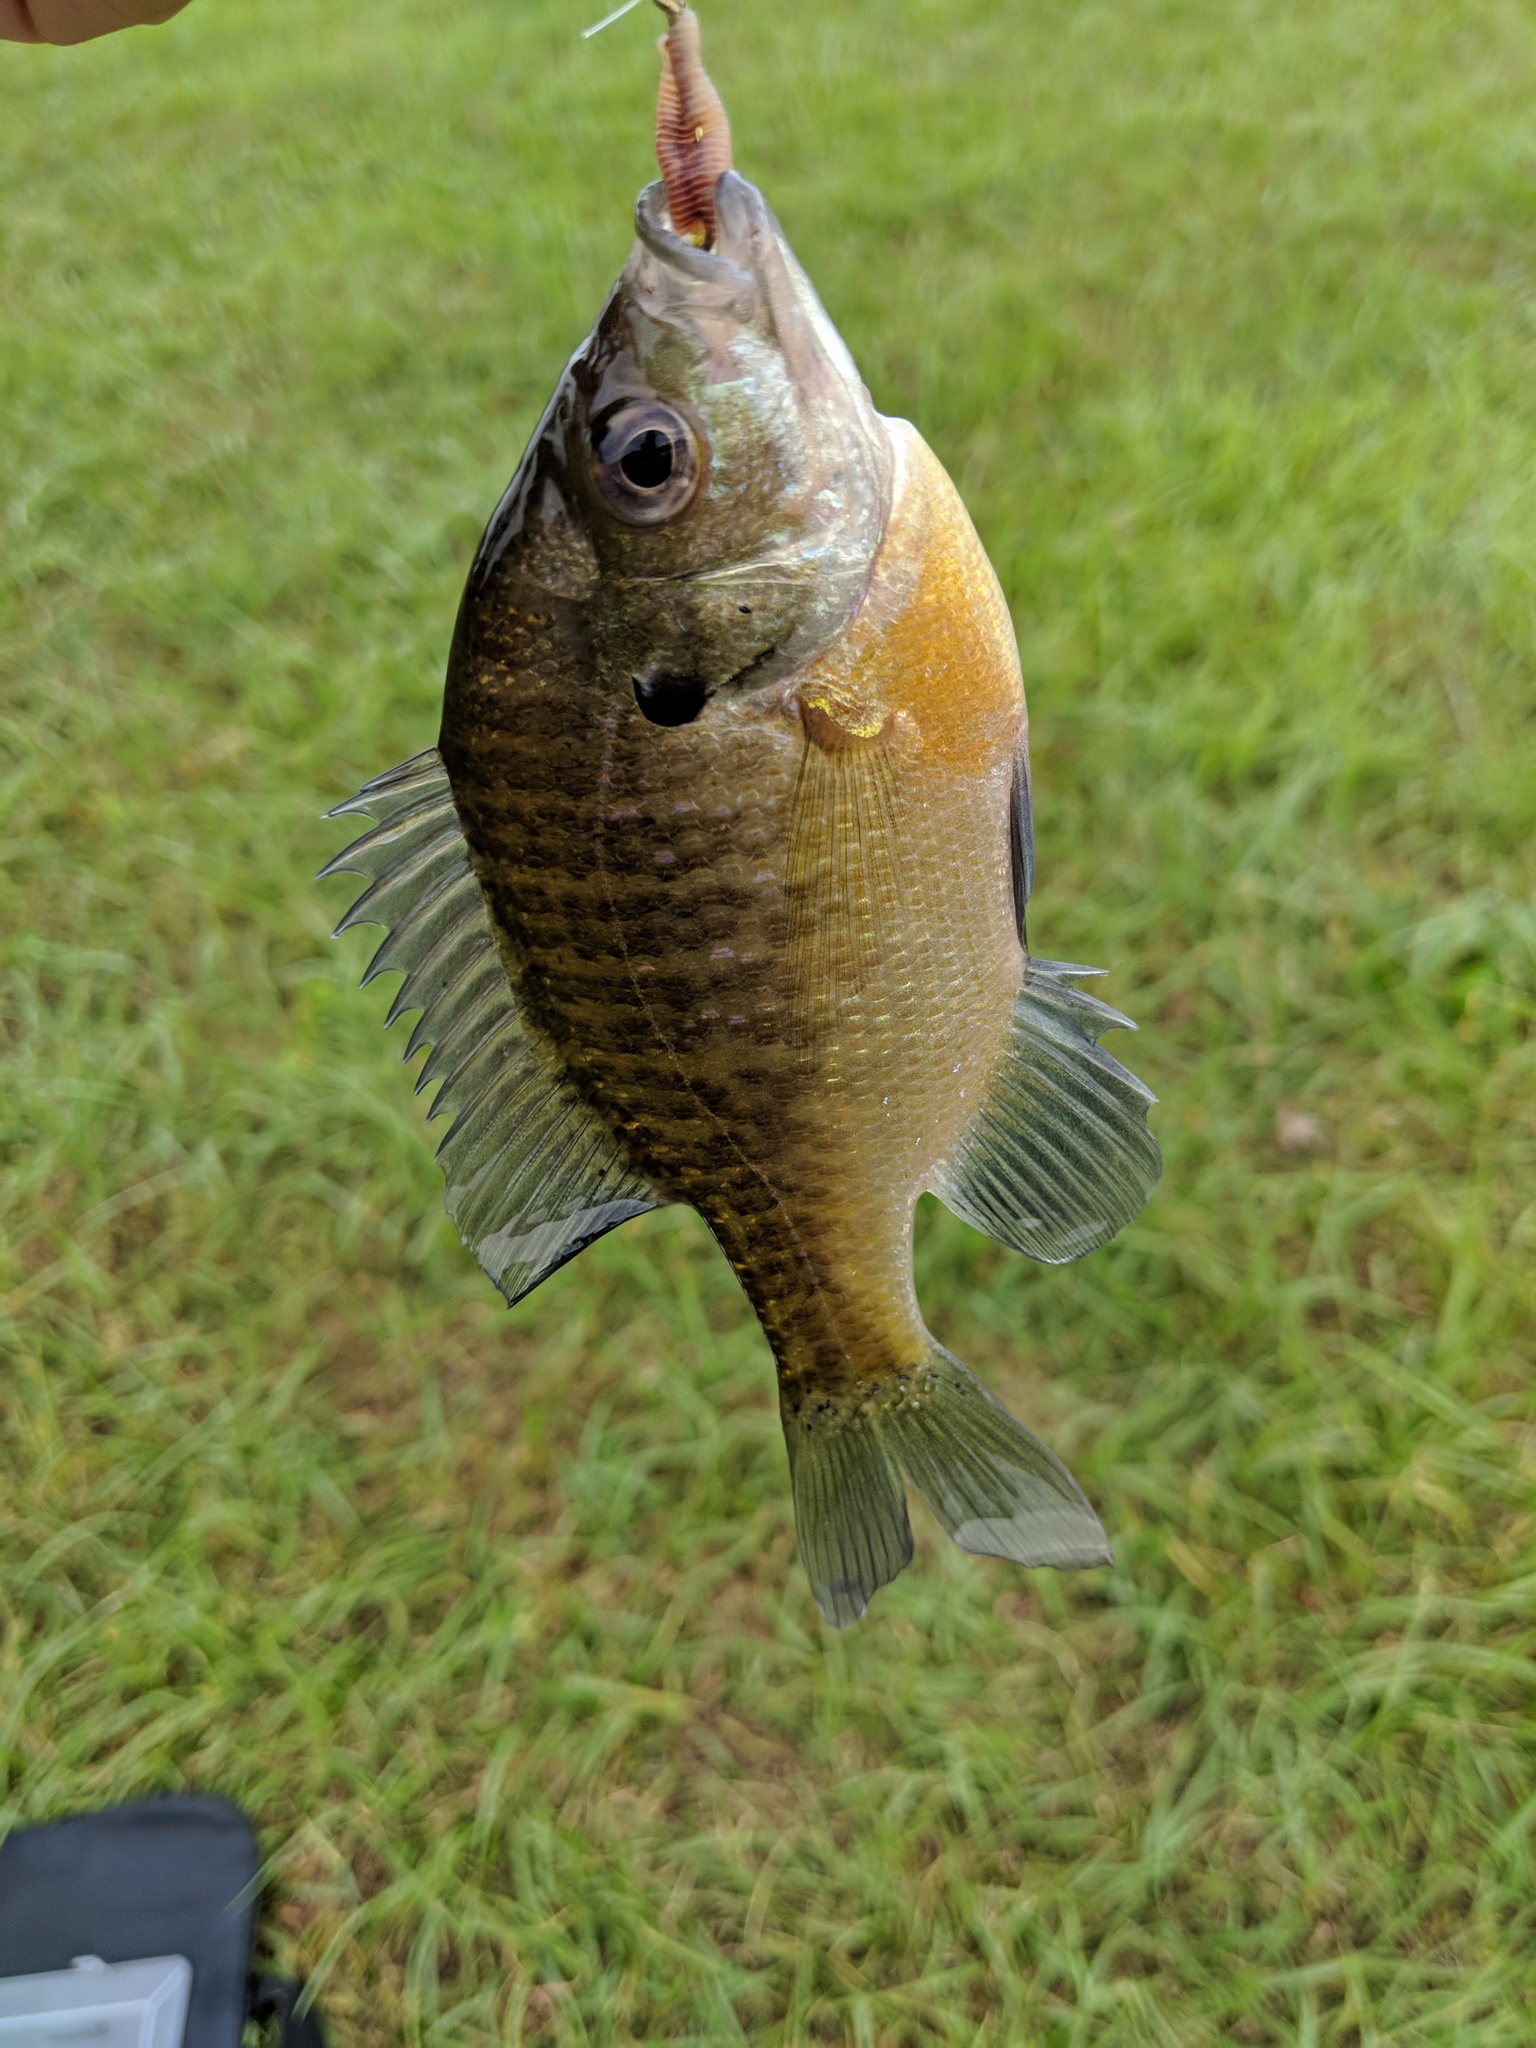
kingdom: Animalia
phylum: Chordata
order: Perciformes
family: Centrarchidae
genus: Lepomis
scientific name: Lepomis macrochirus
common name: Bluegill
